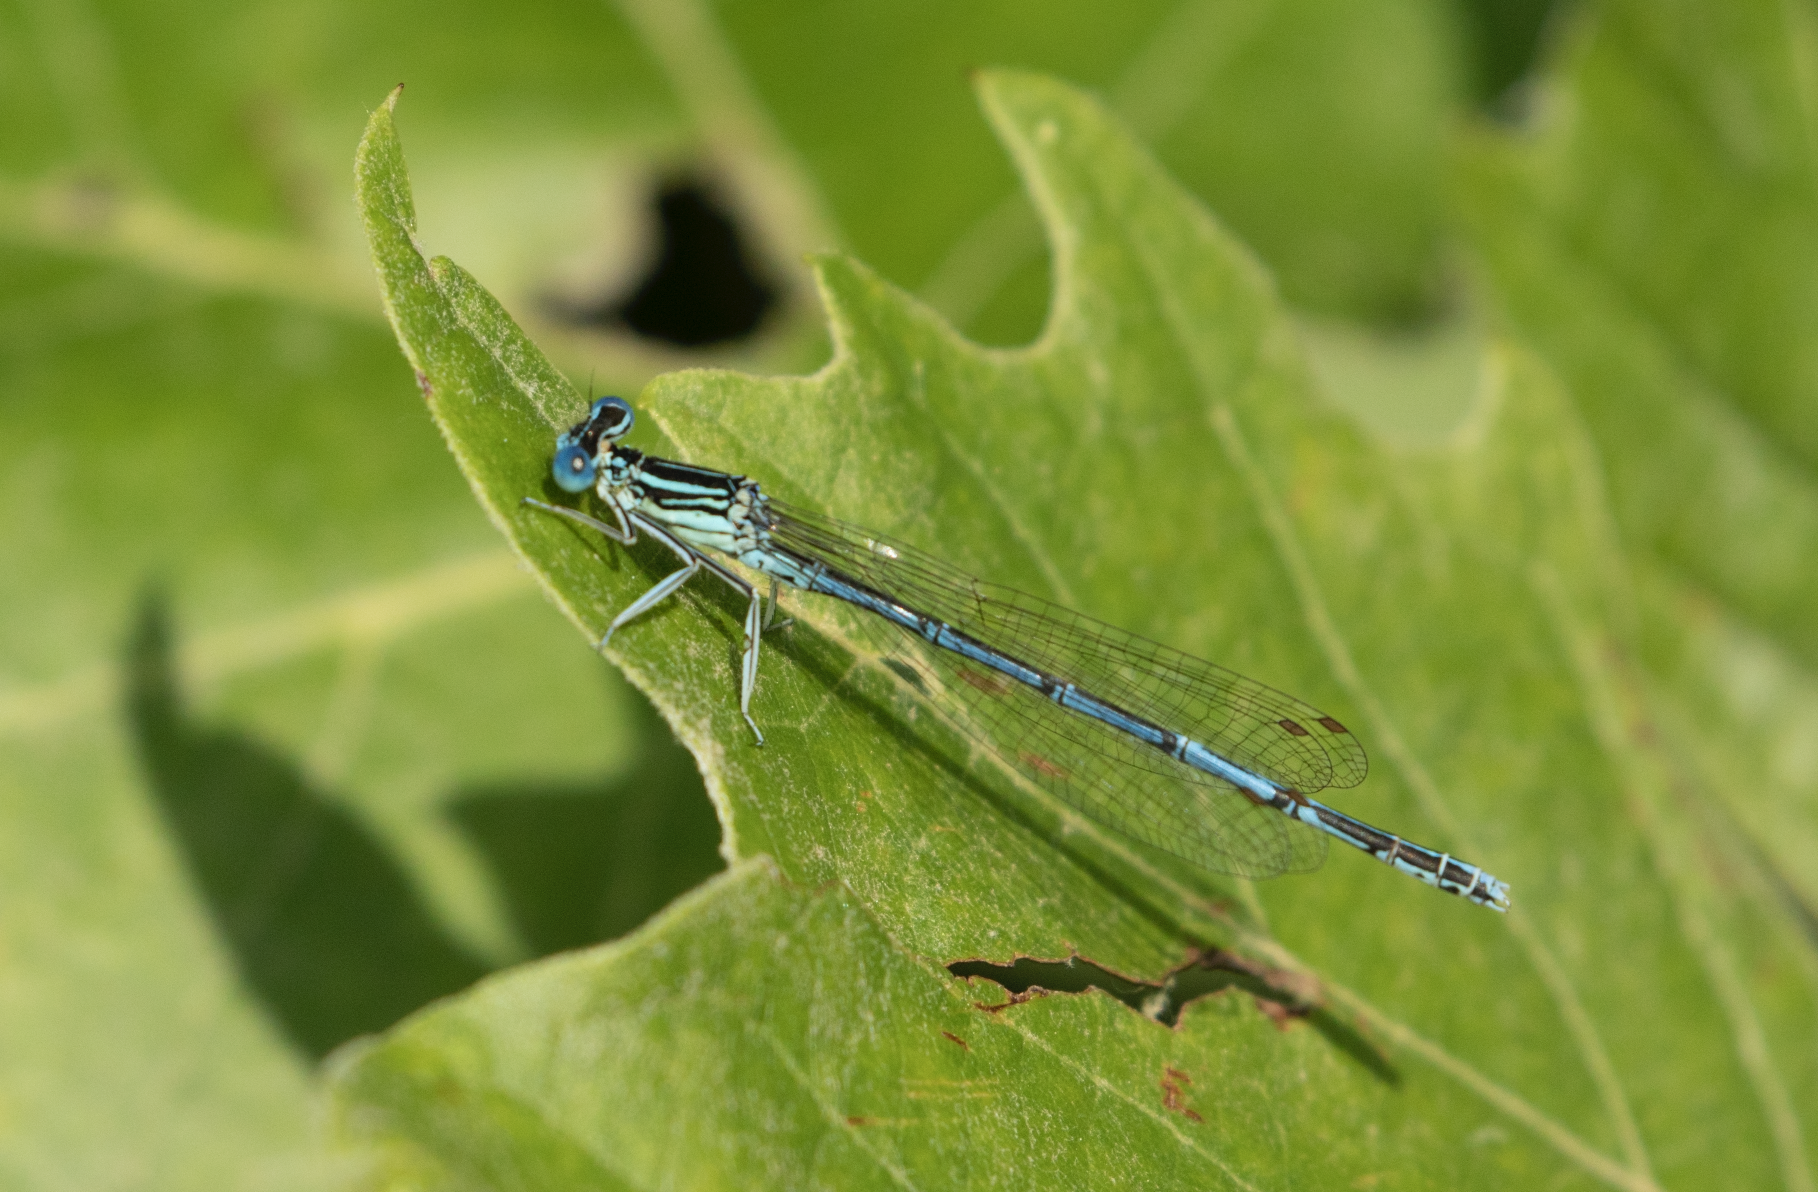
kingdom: Animalia
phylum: Arthropoda
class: Insecta
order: Odonata
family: Platycnemididae
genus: Platycnemis
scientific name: Platycnemis pennipes
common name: White-legged damselfly
